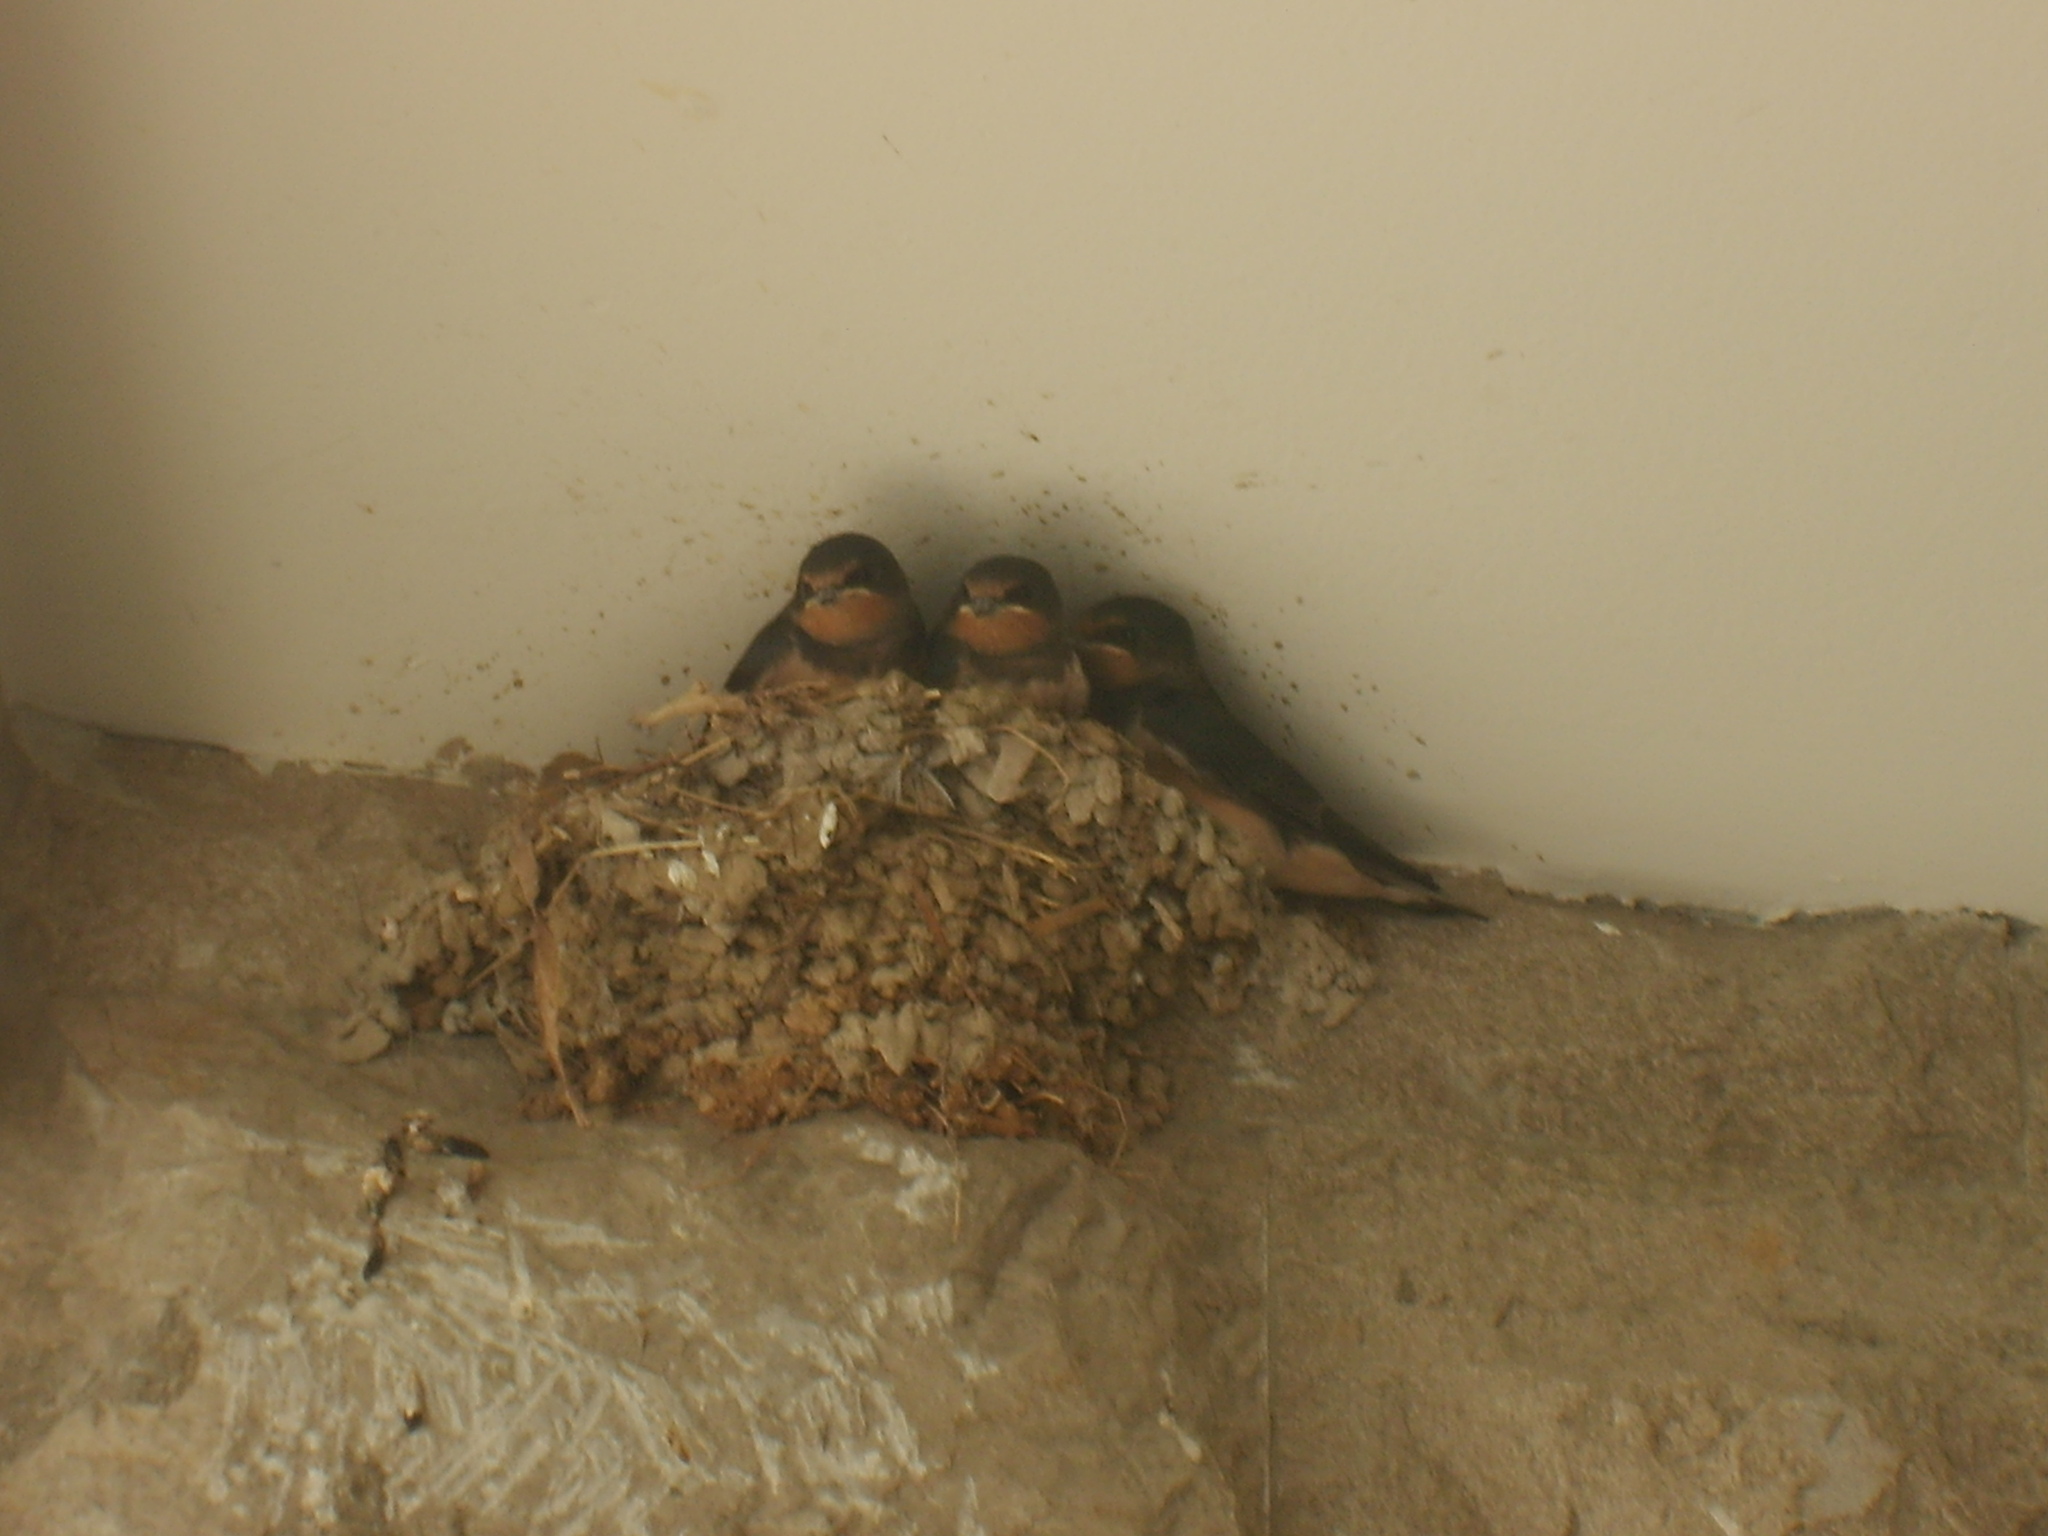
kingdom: Animalia
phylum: Chordata
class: Aves
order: Passeriformes
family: Hirundinidae
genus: Hirundo
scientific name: Hirundo rustica
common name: Barn swallow
